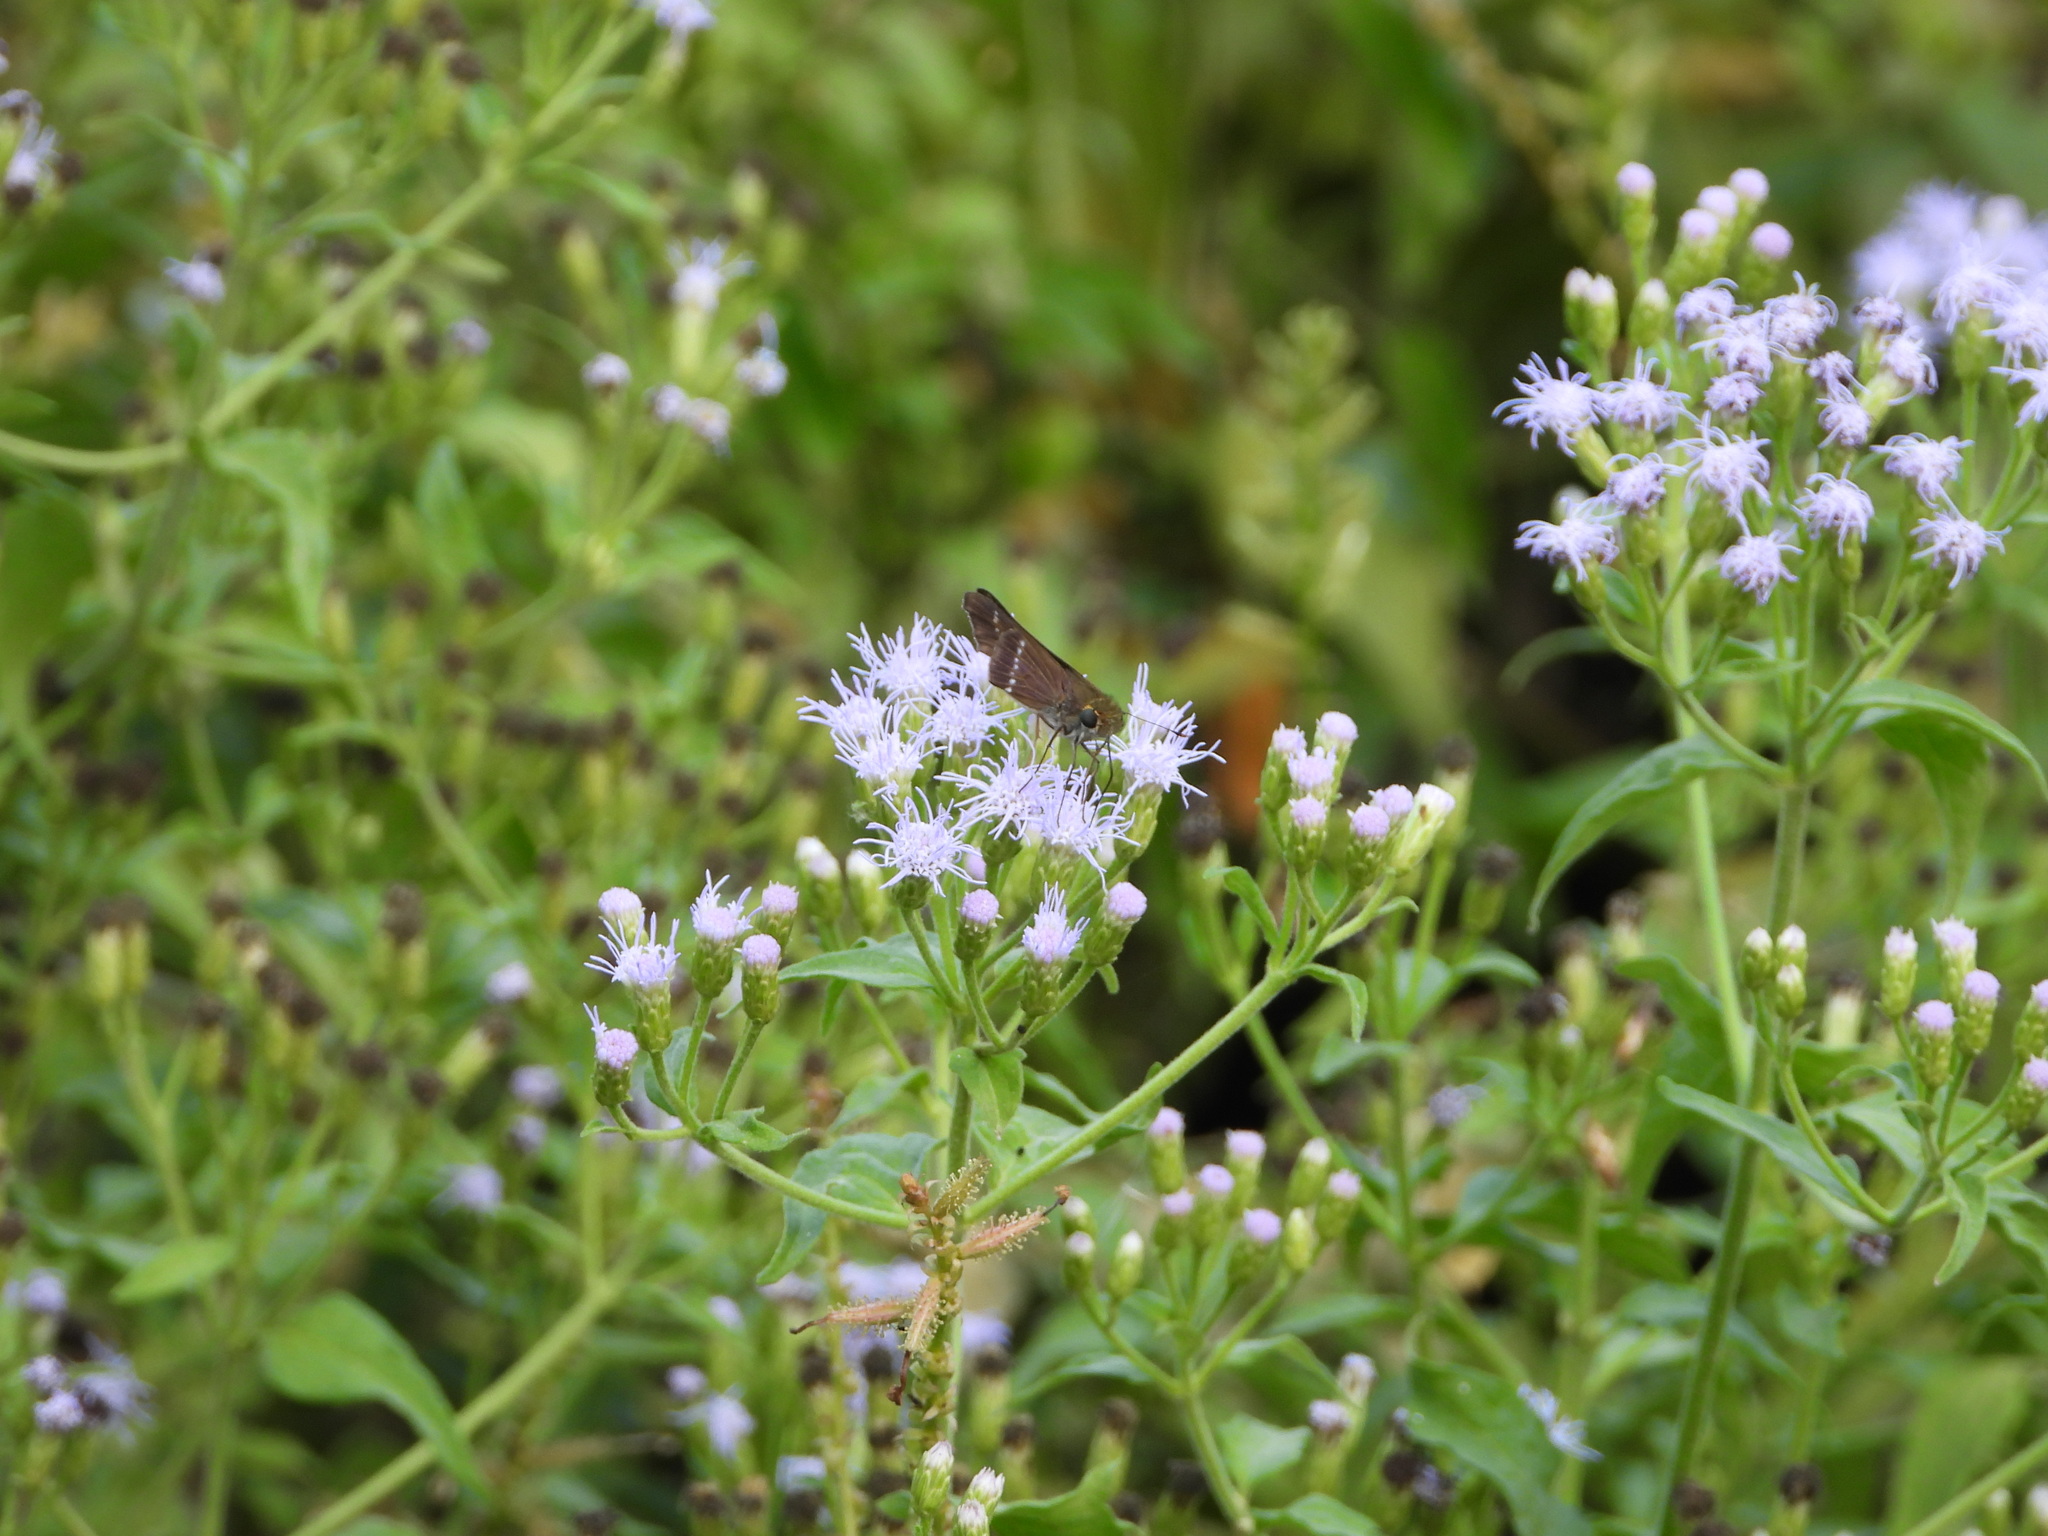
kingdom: Animalia
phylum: Arthropoda
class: Insecta
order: Lepidoptera
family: Hesperiidae
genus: Turesis
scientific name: Turesis lucas
